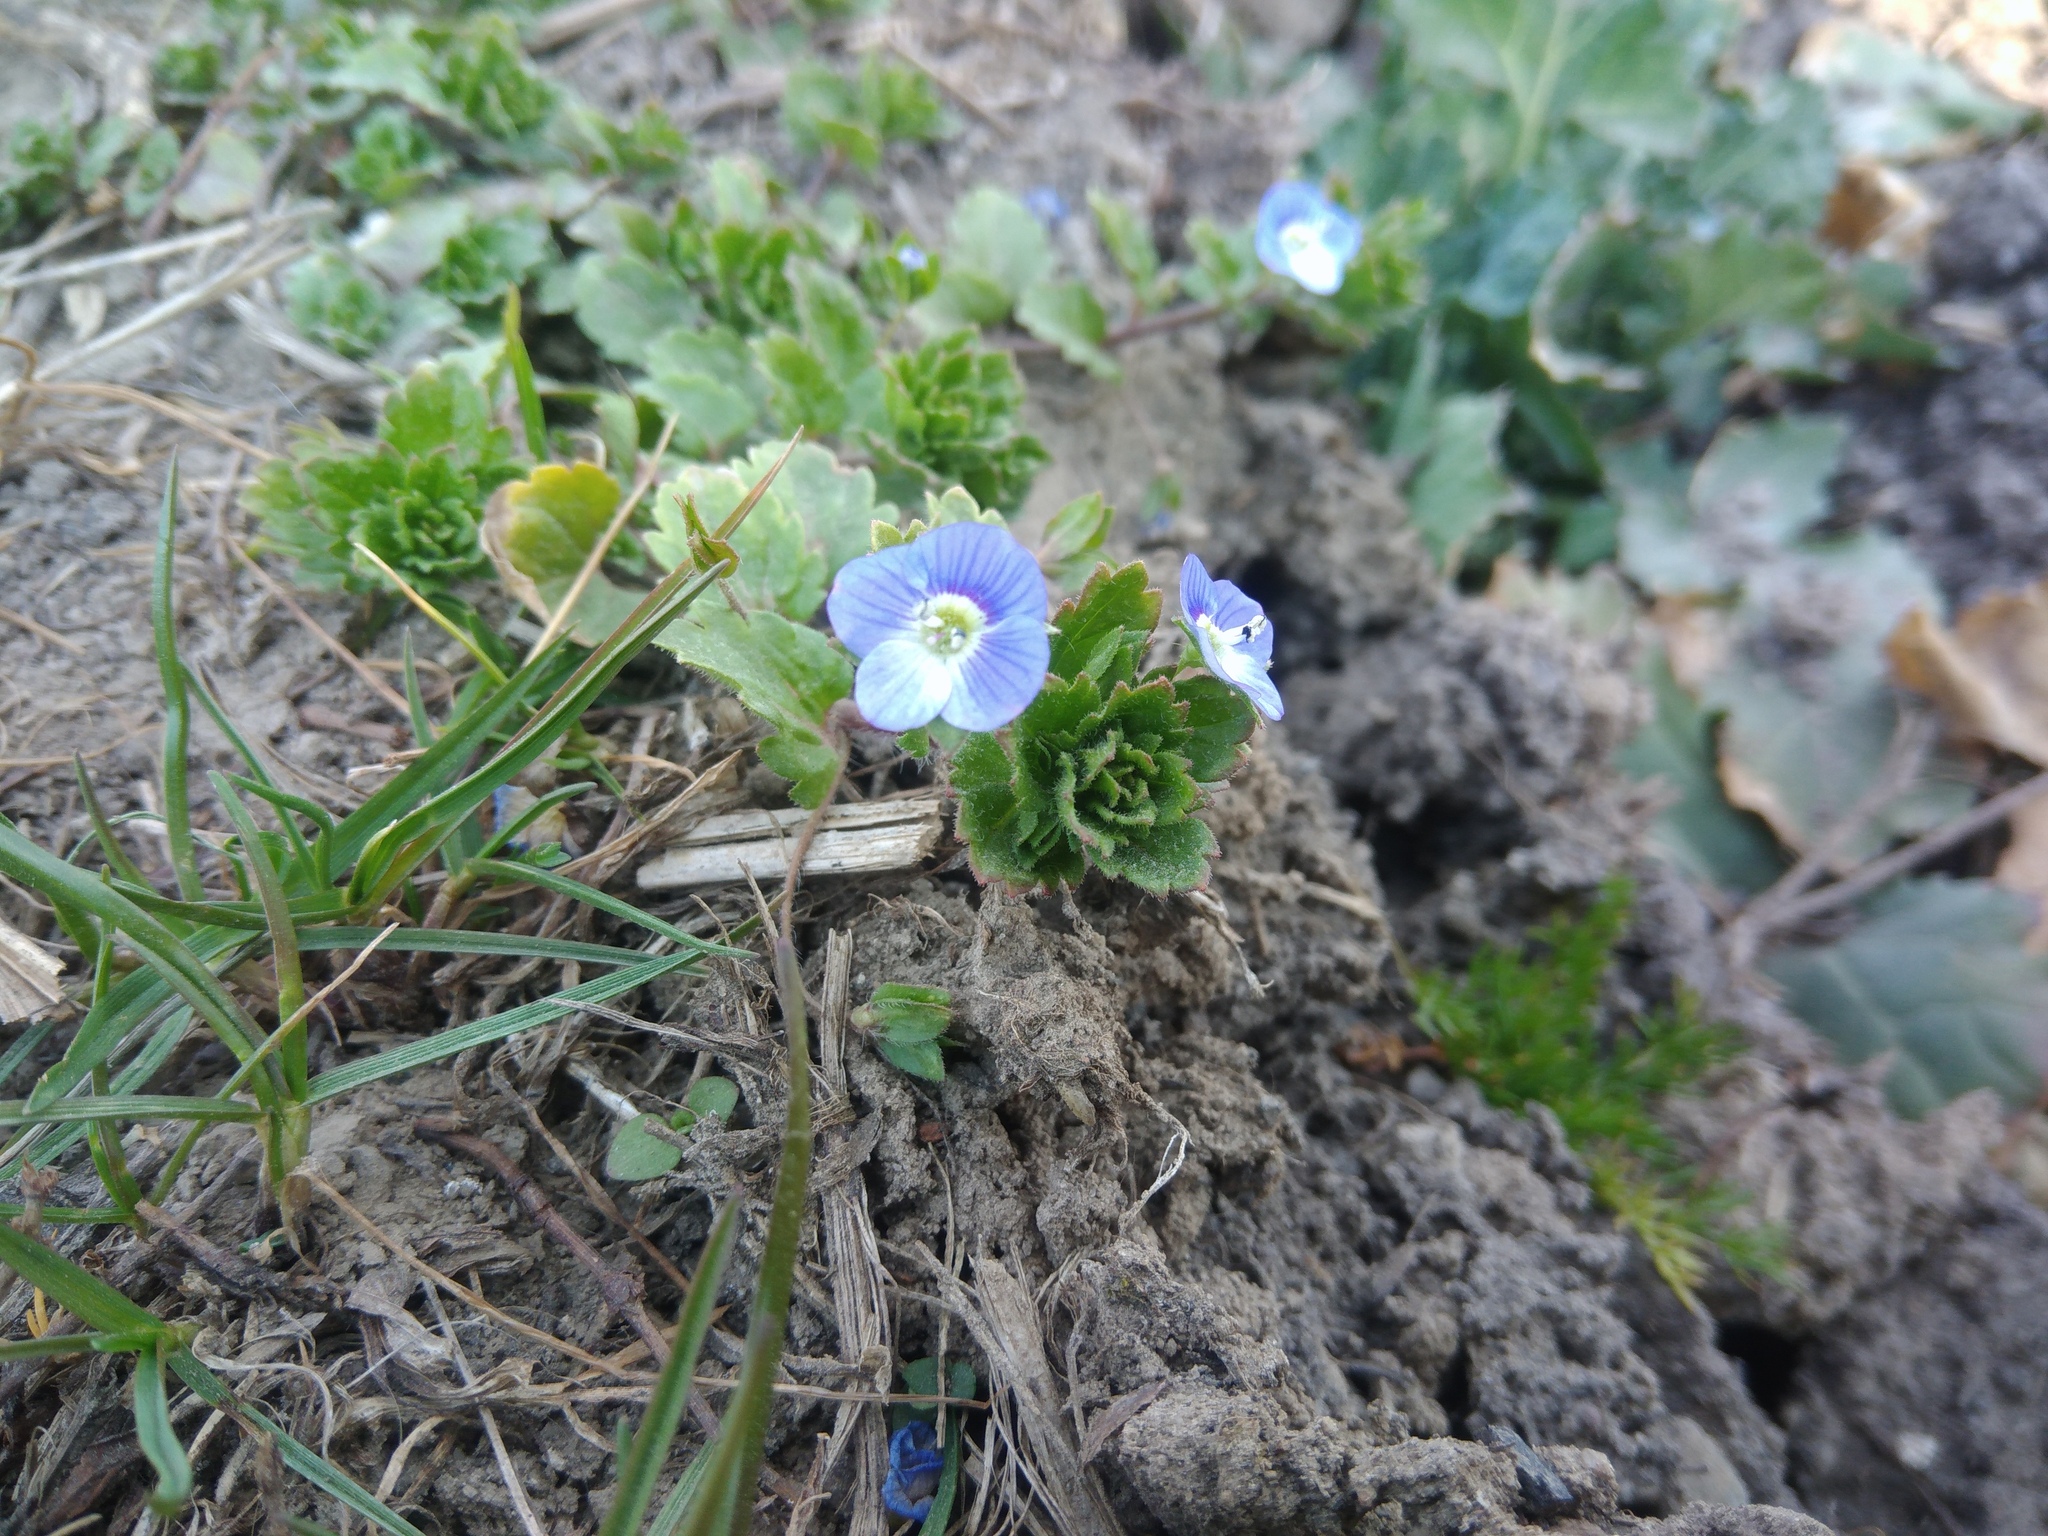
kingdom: Plantae
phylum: Tracheophyta
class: Magnoliopsida
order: Lamiales
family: Plantaginaceae
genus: Veronica
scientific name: Veronica persica
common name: Common field-speedwell
